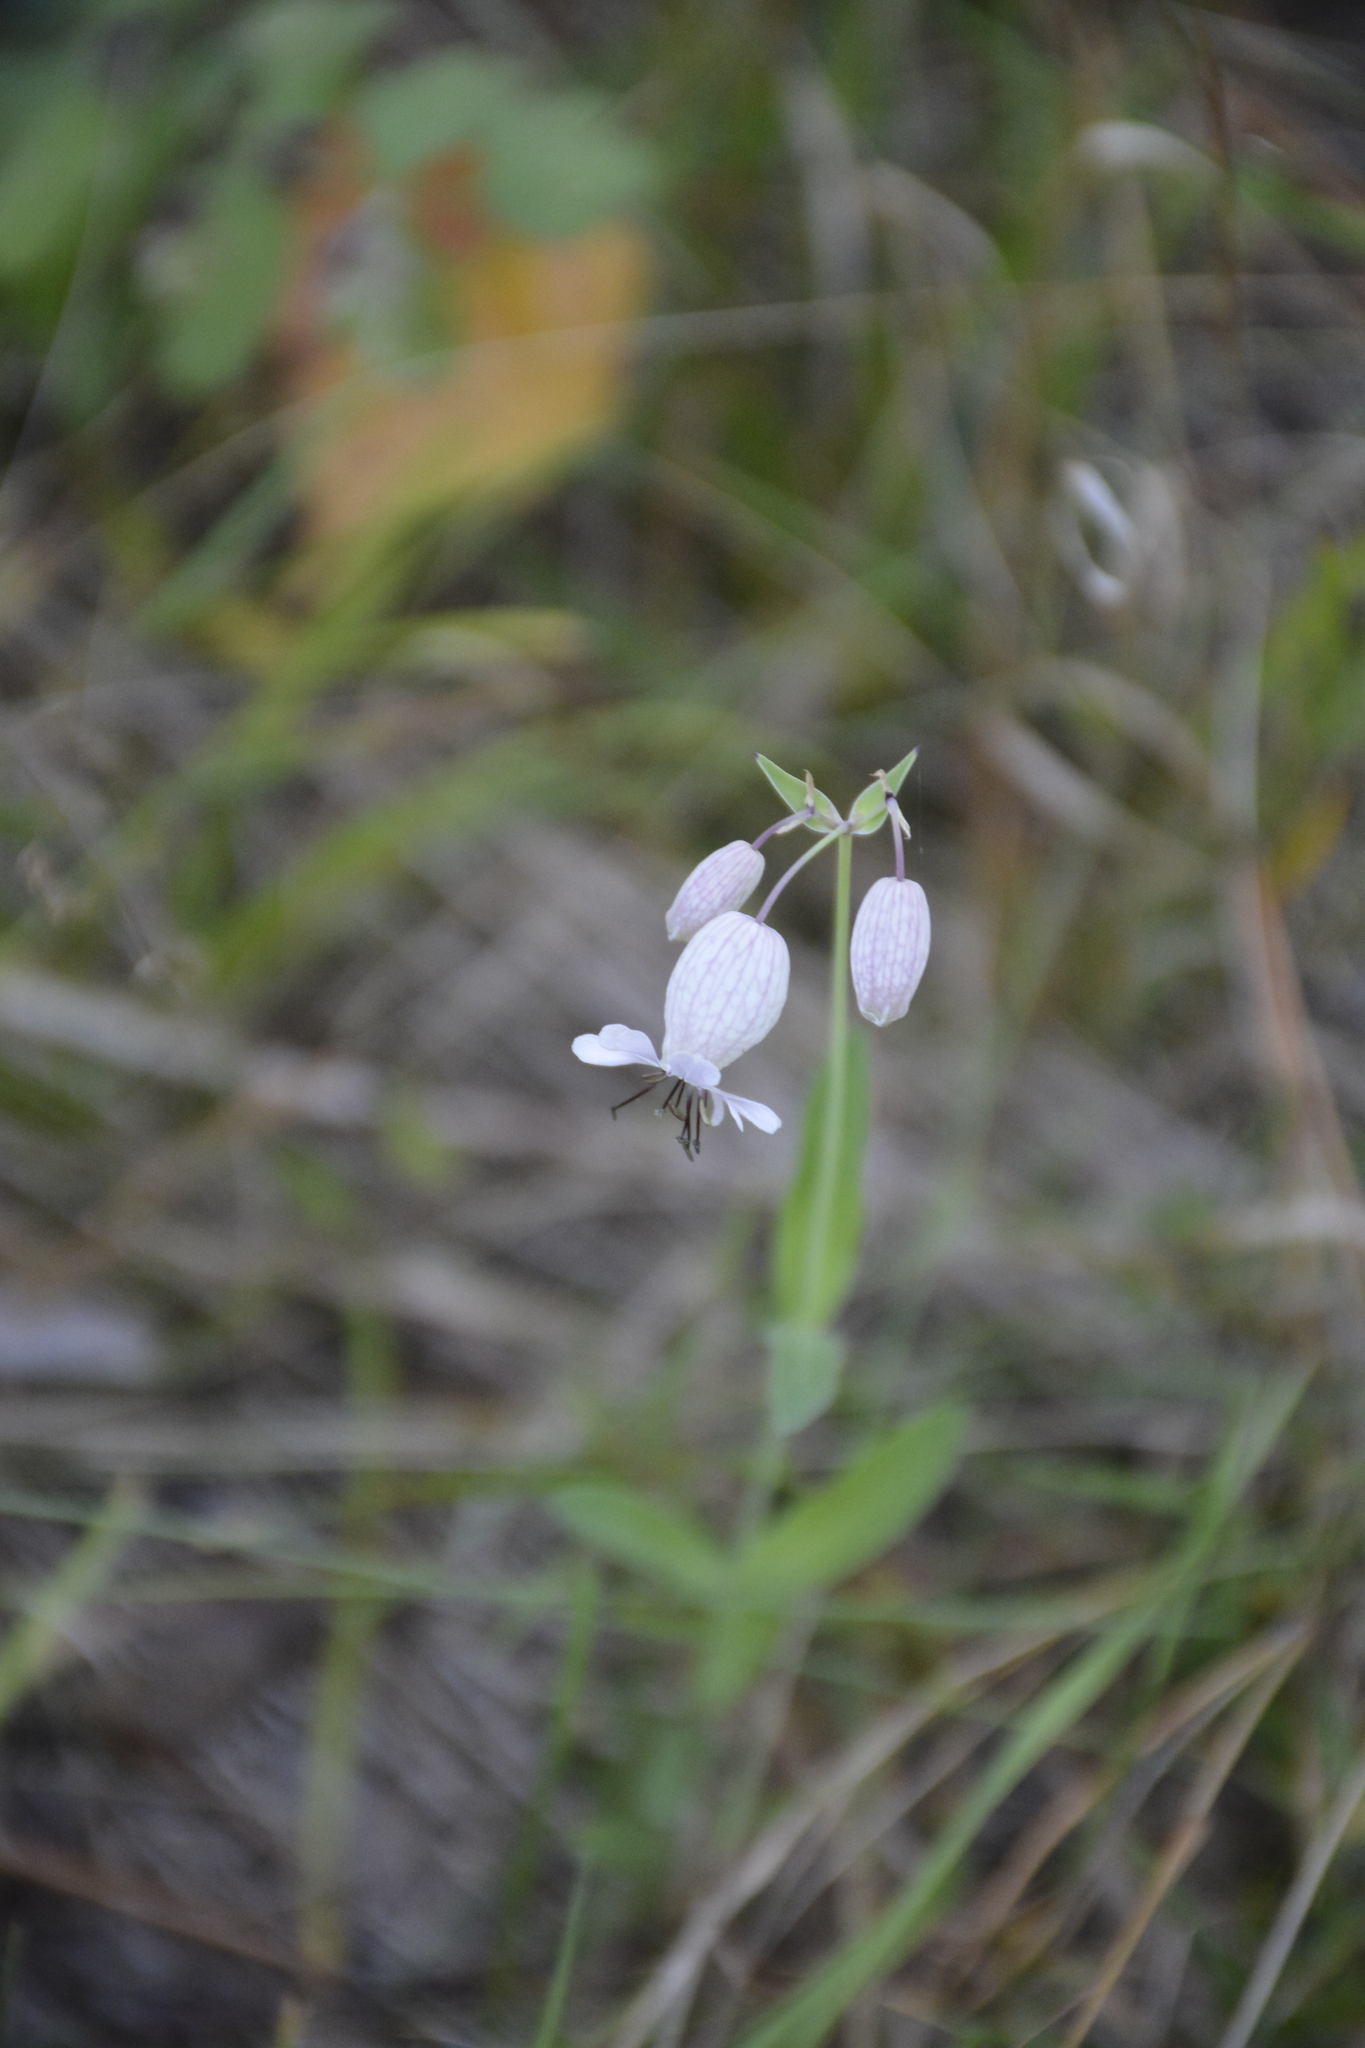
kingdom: Plantae
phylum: Tracheophyta
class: Magnoliopsida
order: Caryophyllales
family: Caryophyllaceae
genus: Silene
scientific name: Silene vulgaris
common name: Bladder campion
